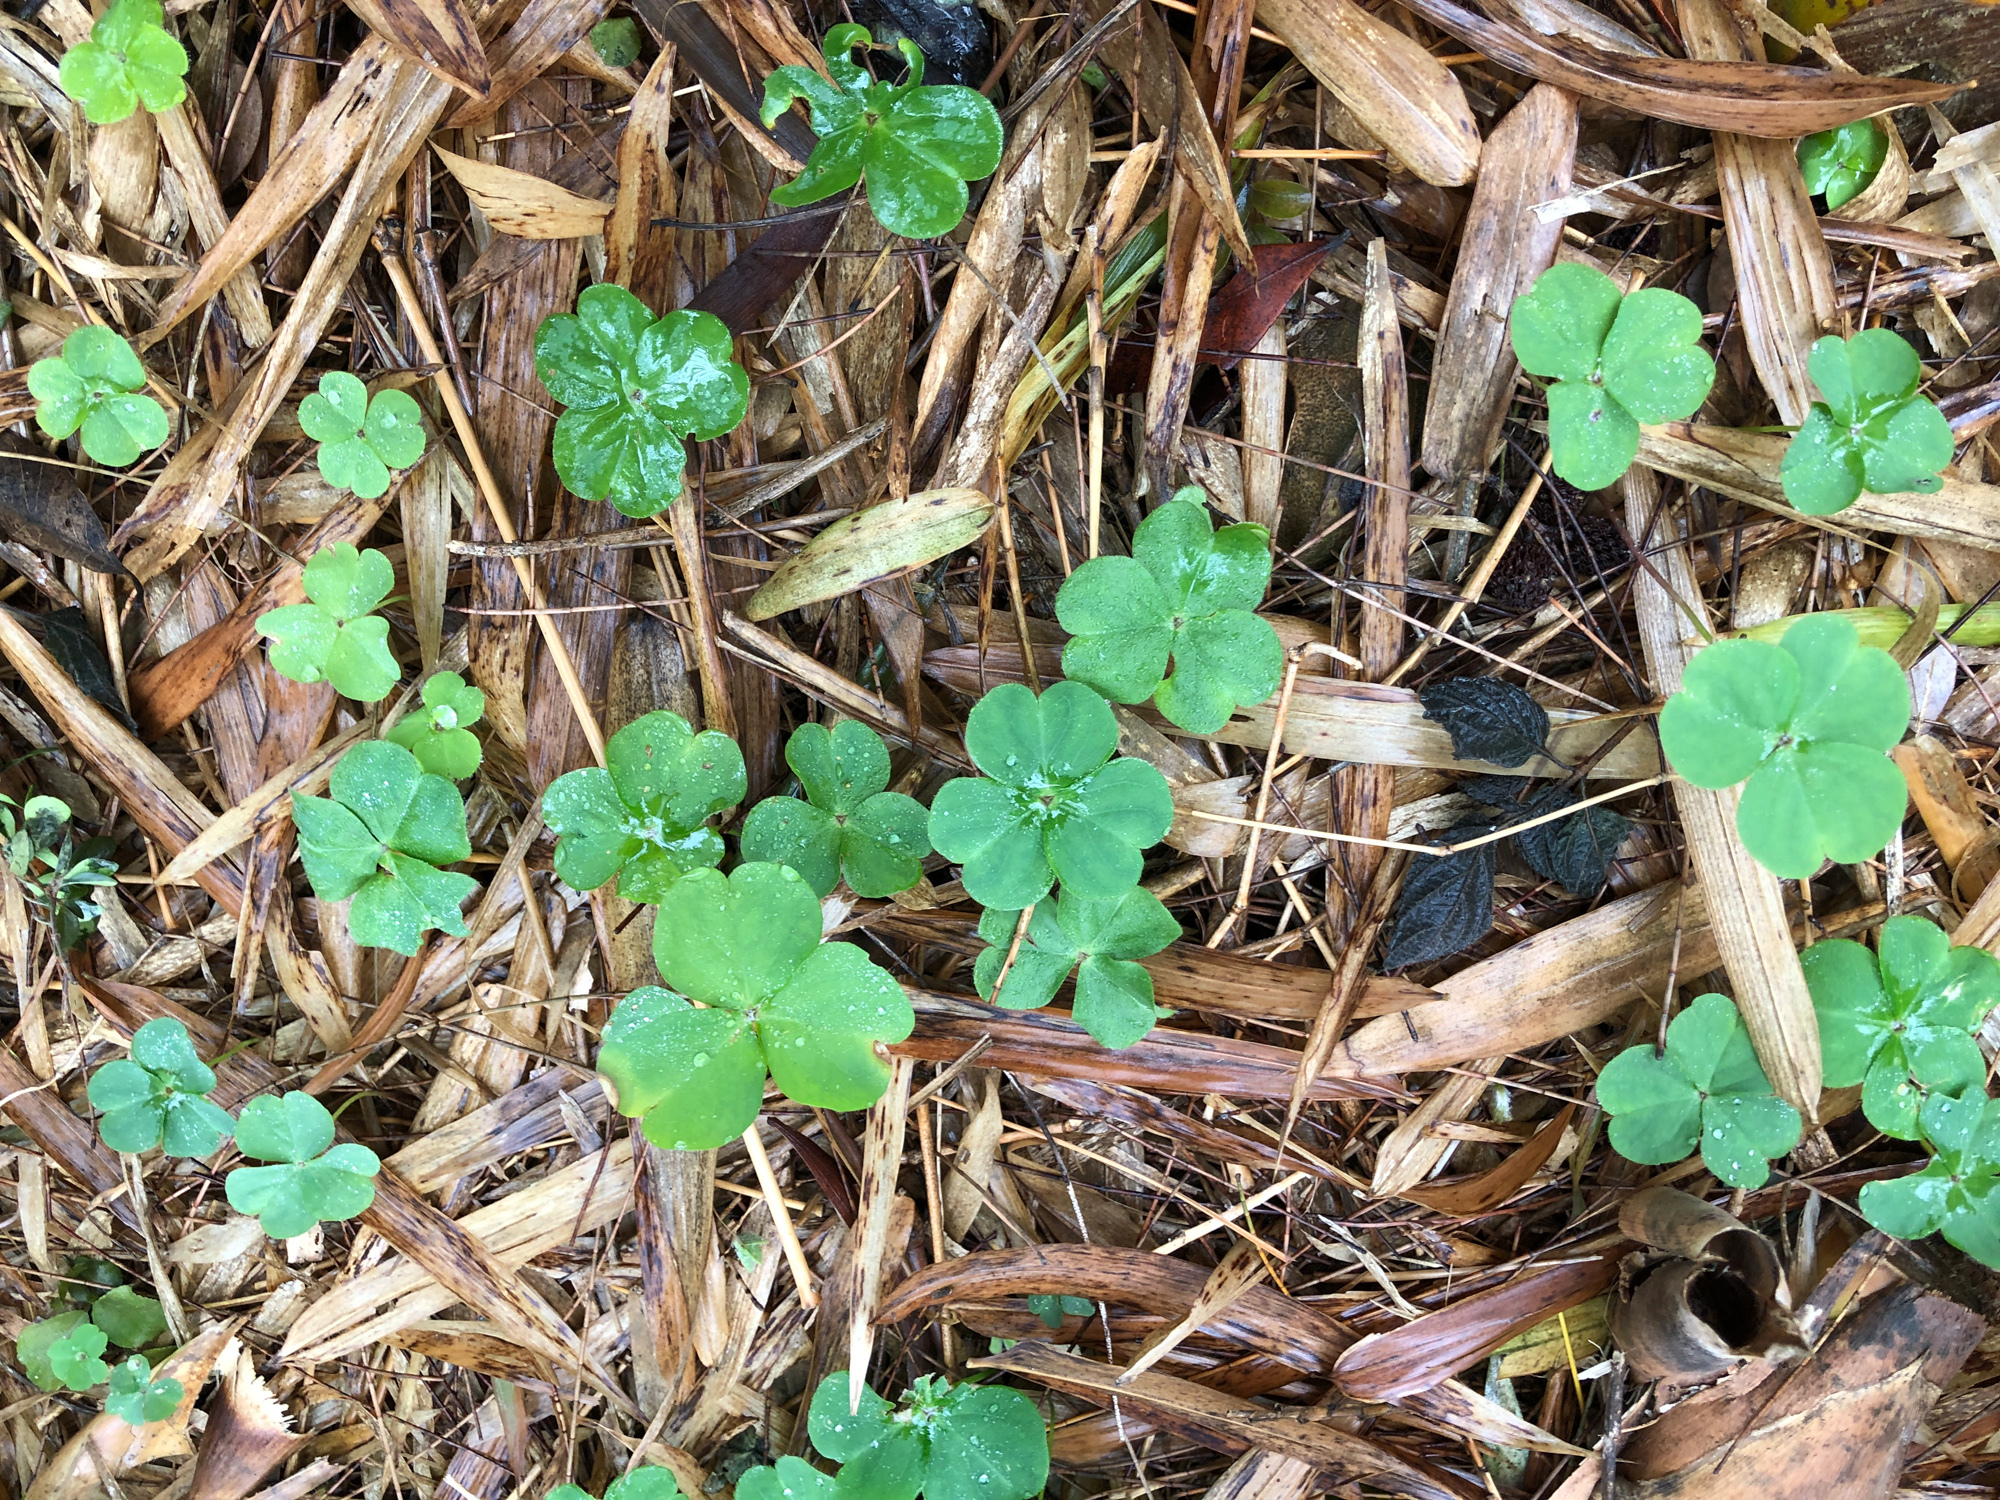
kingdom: Plantae
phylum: Tracheophyta
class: Magnoliopsida
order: Oxalidales
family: Oxalidaceae
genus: Oxalis
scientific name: Oxalis debilis
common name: Large-flowered pink-sorrel
